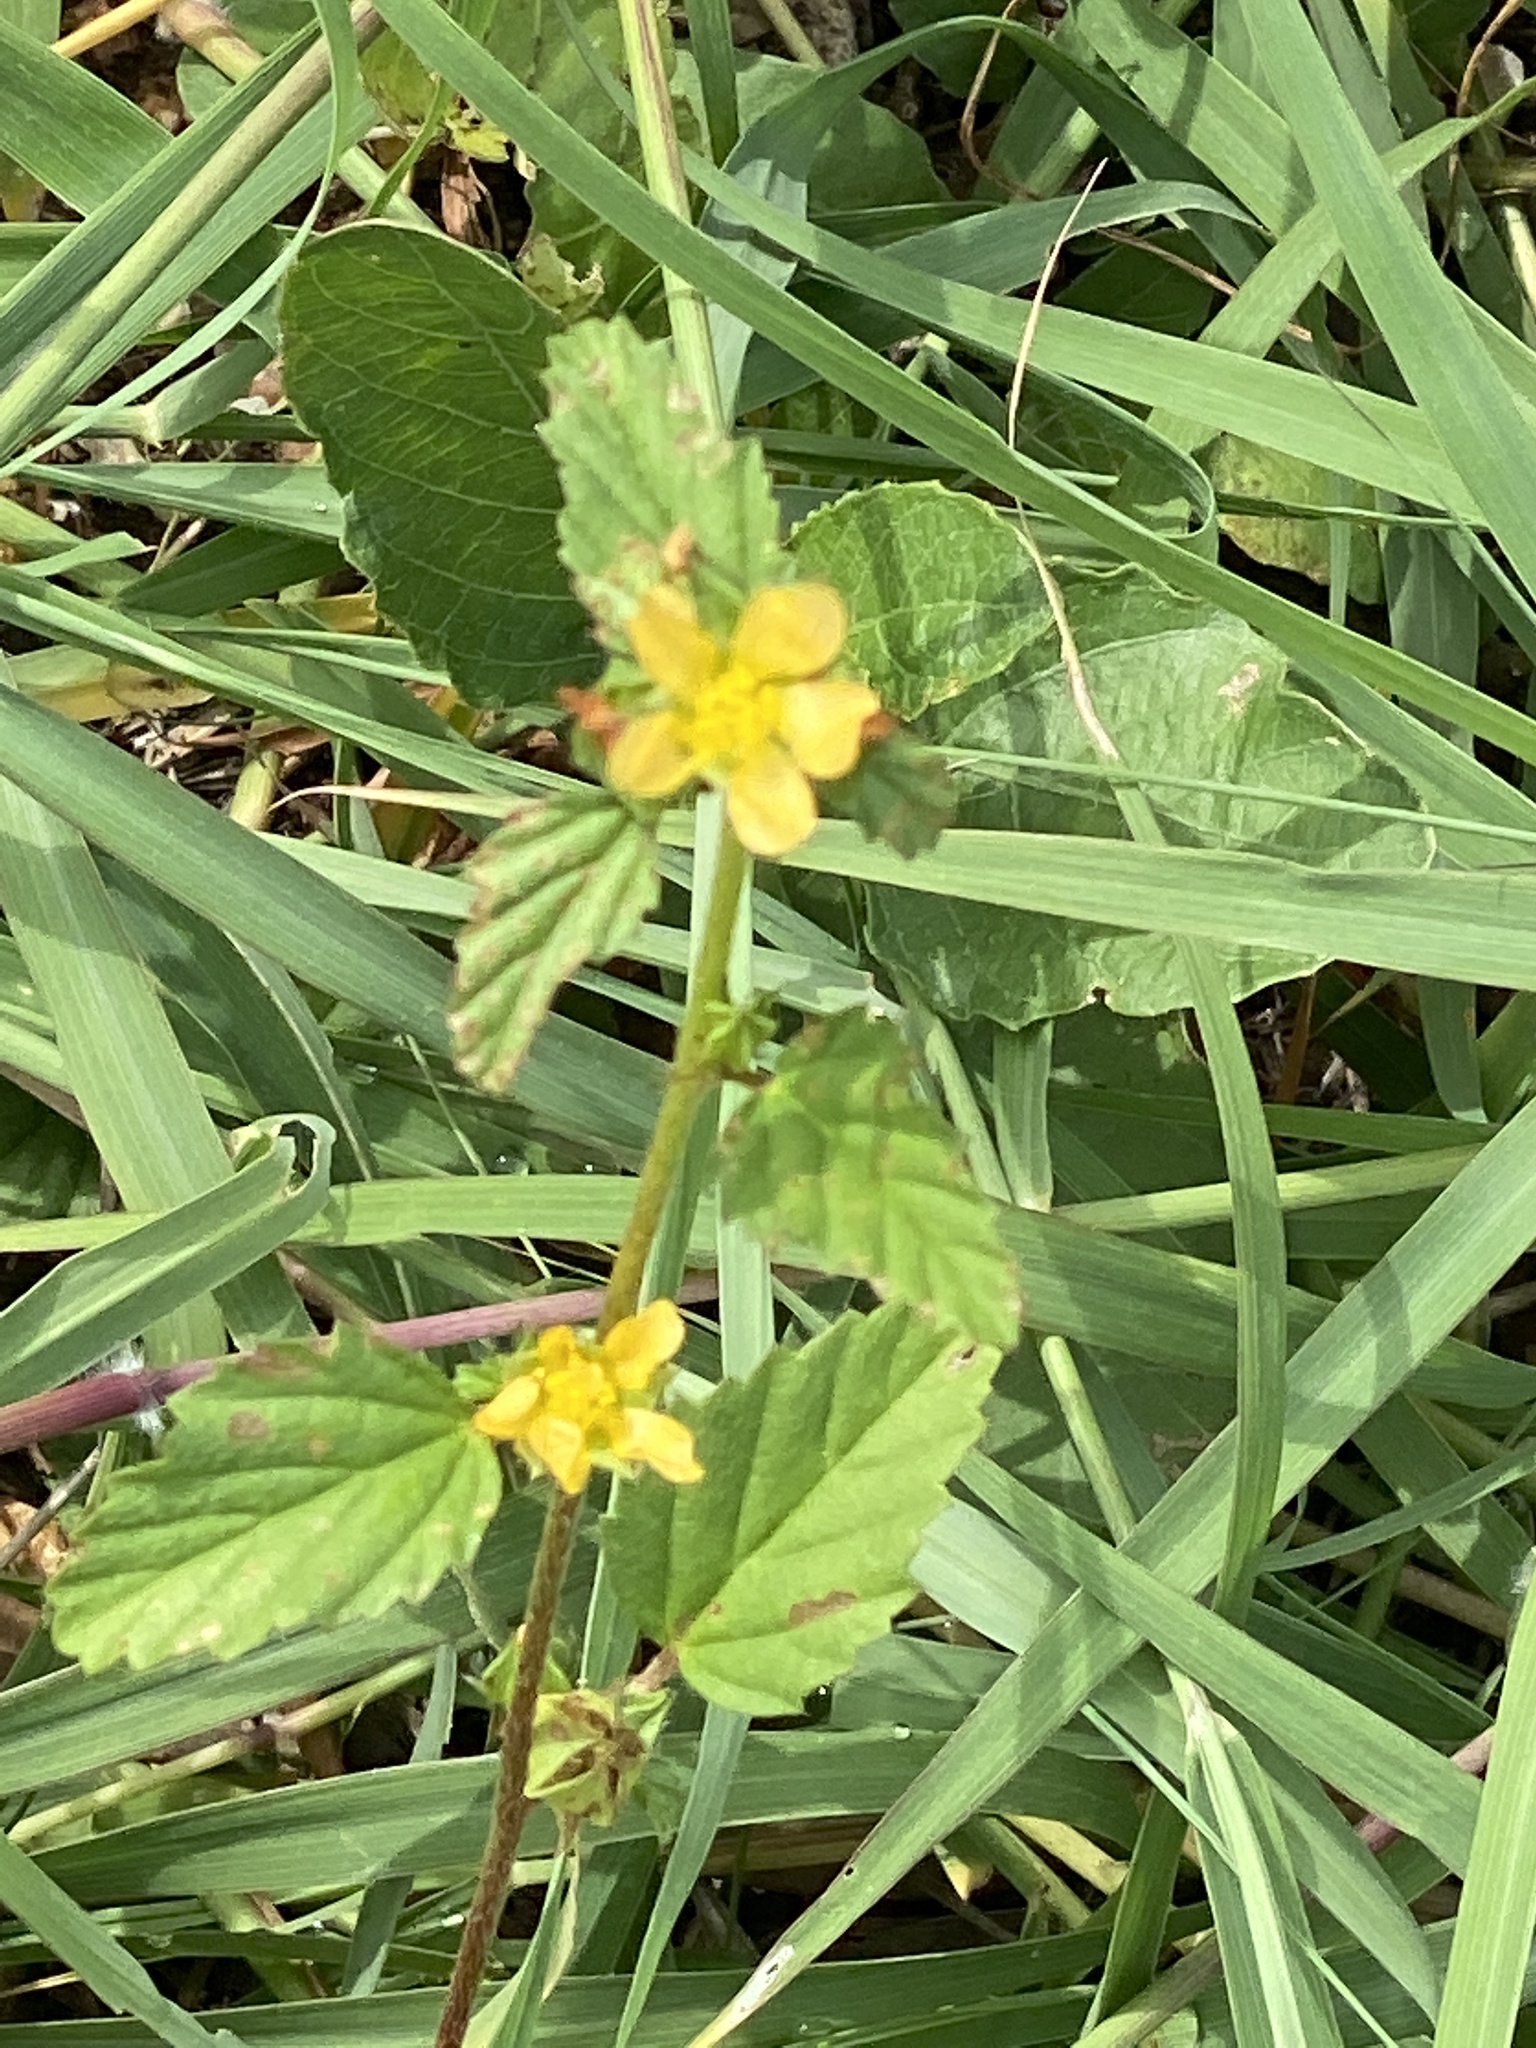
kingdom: Plantae
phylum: Tracheophyta
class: Magnoliopsida
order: Malvales
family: Malvaceae
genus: Malvastrum
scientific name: Malvastrum coromandelianum
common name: Threelobe false mallow
